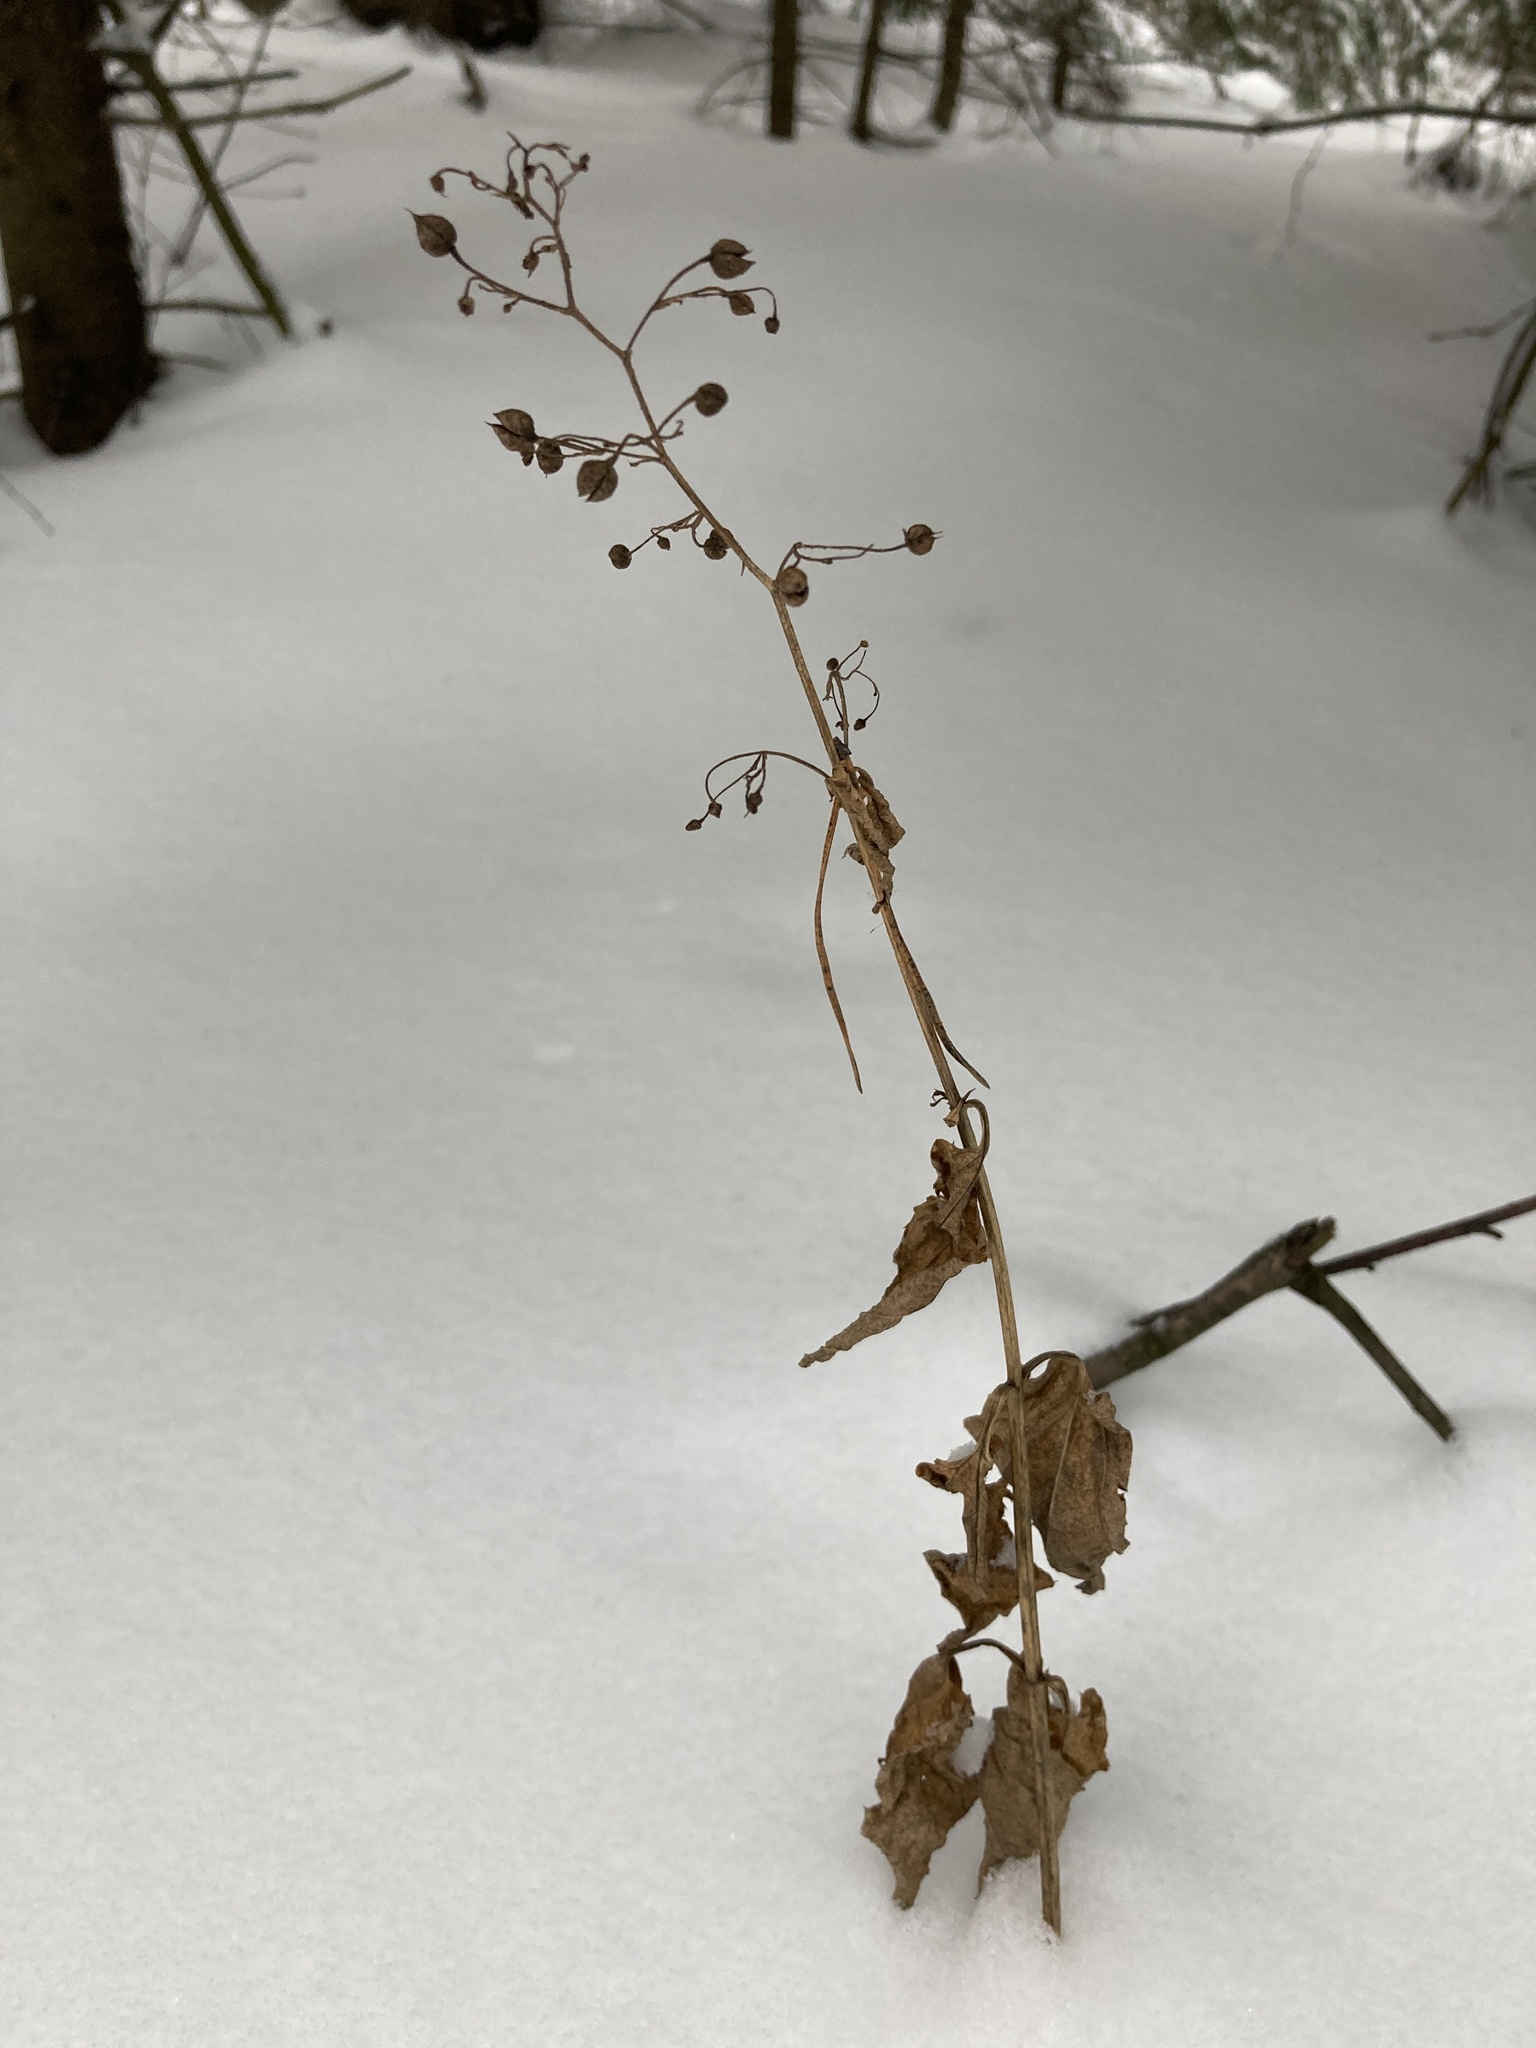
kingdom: Plantae
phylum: Tracheophyta
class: Magnoliopsida
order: Lamiales
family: Scrophulariaceae
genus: Scrophularia
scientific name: Scrophularia nodosa
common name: Common figwort
